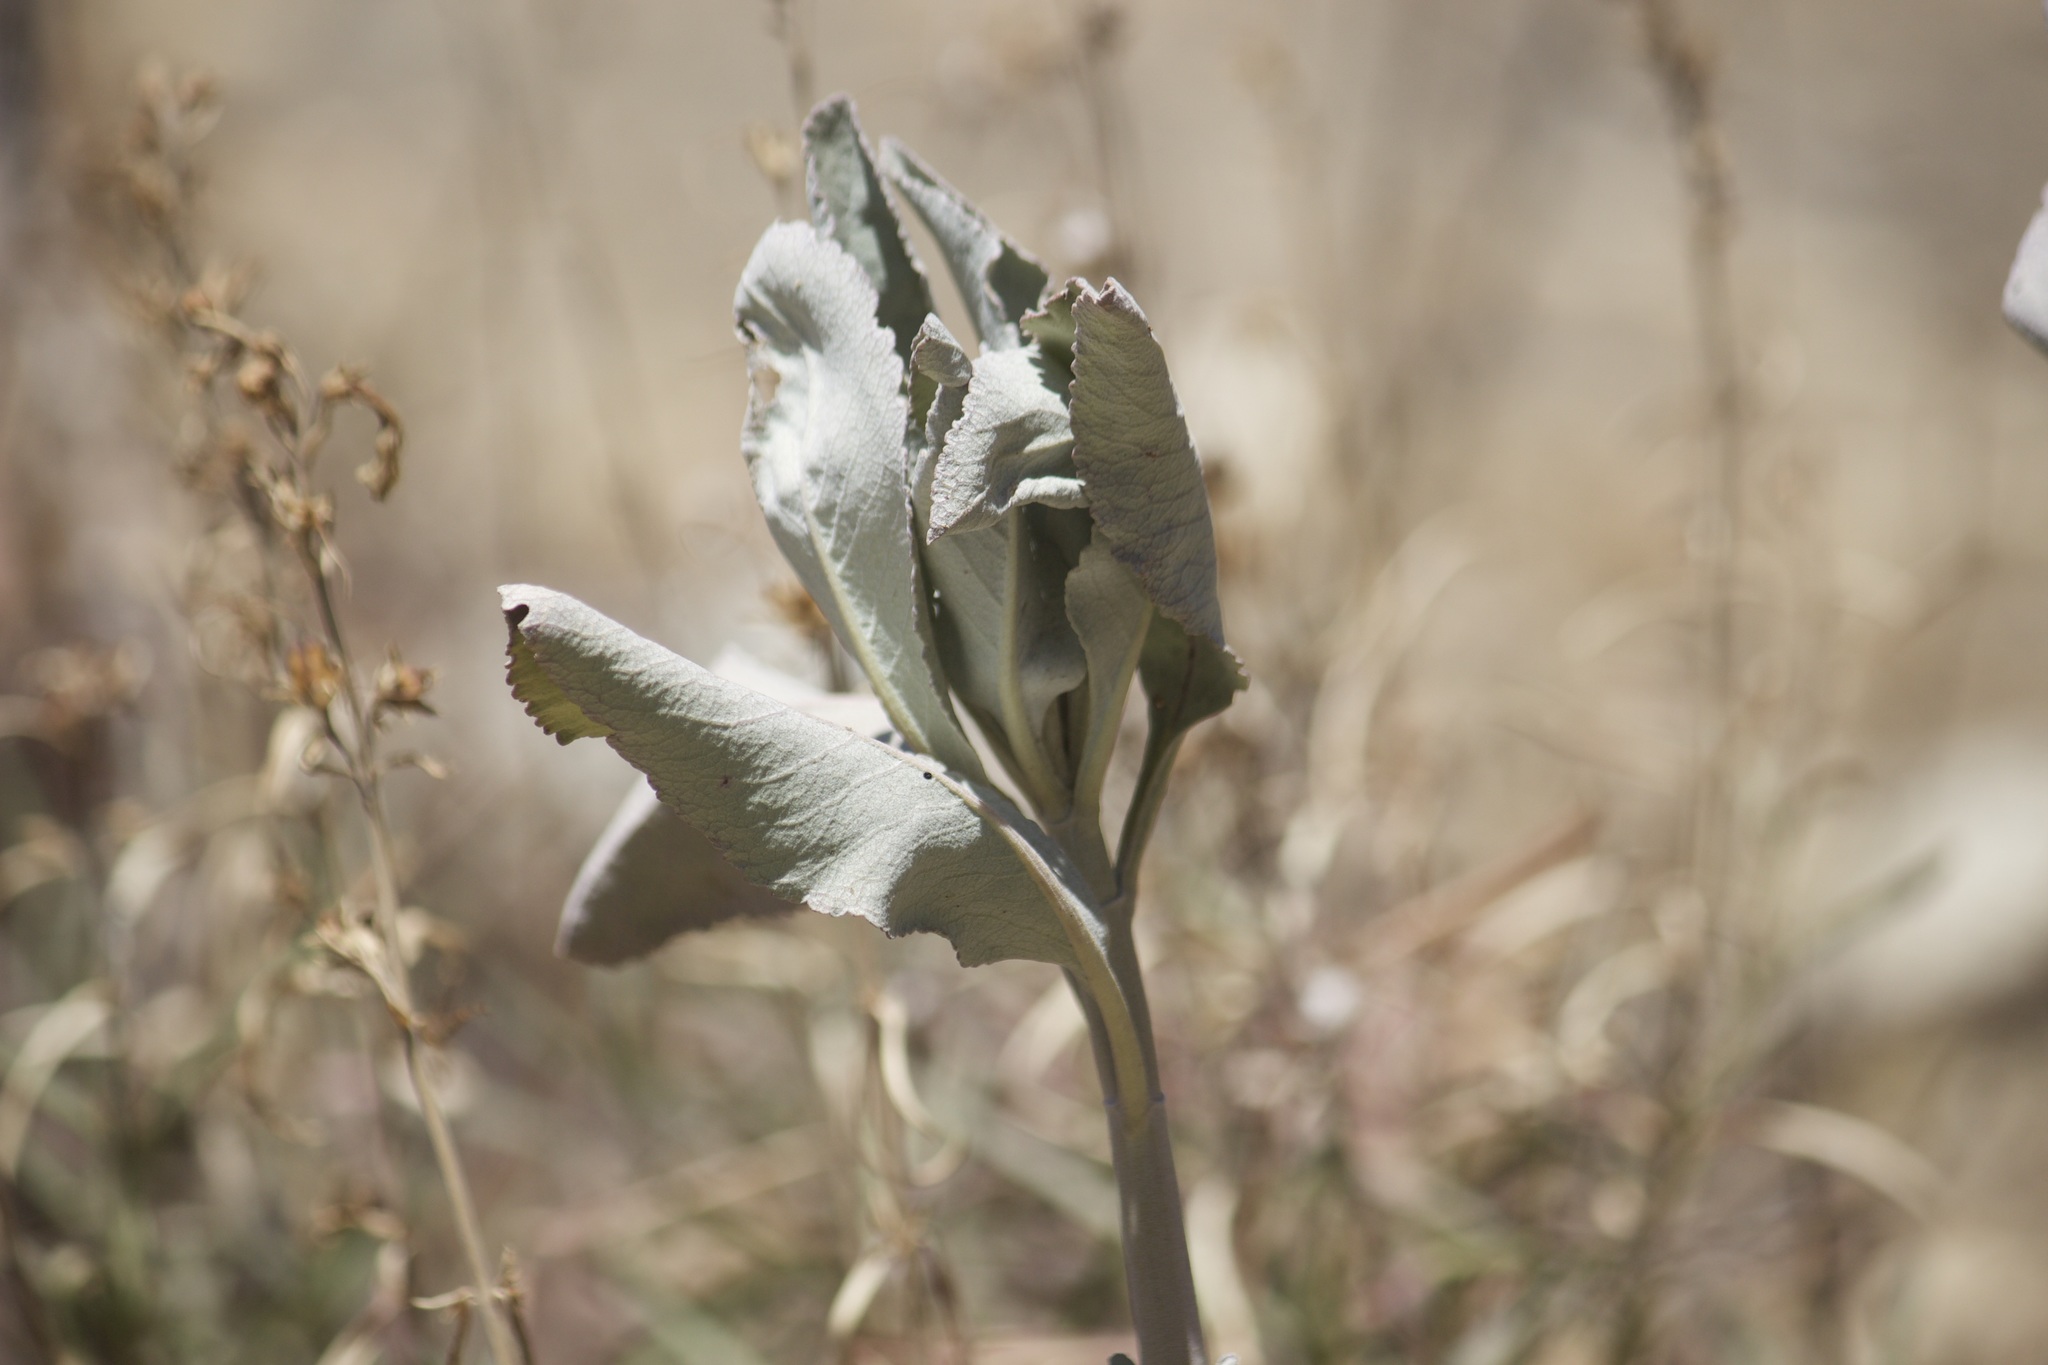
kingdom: Plantae
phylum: Tracheophyta
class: Magnoliopsida
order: Lamiales
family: Lamiaceae
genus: Salvia
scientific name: Salvia apiana
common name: White sage
